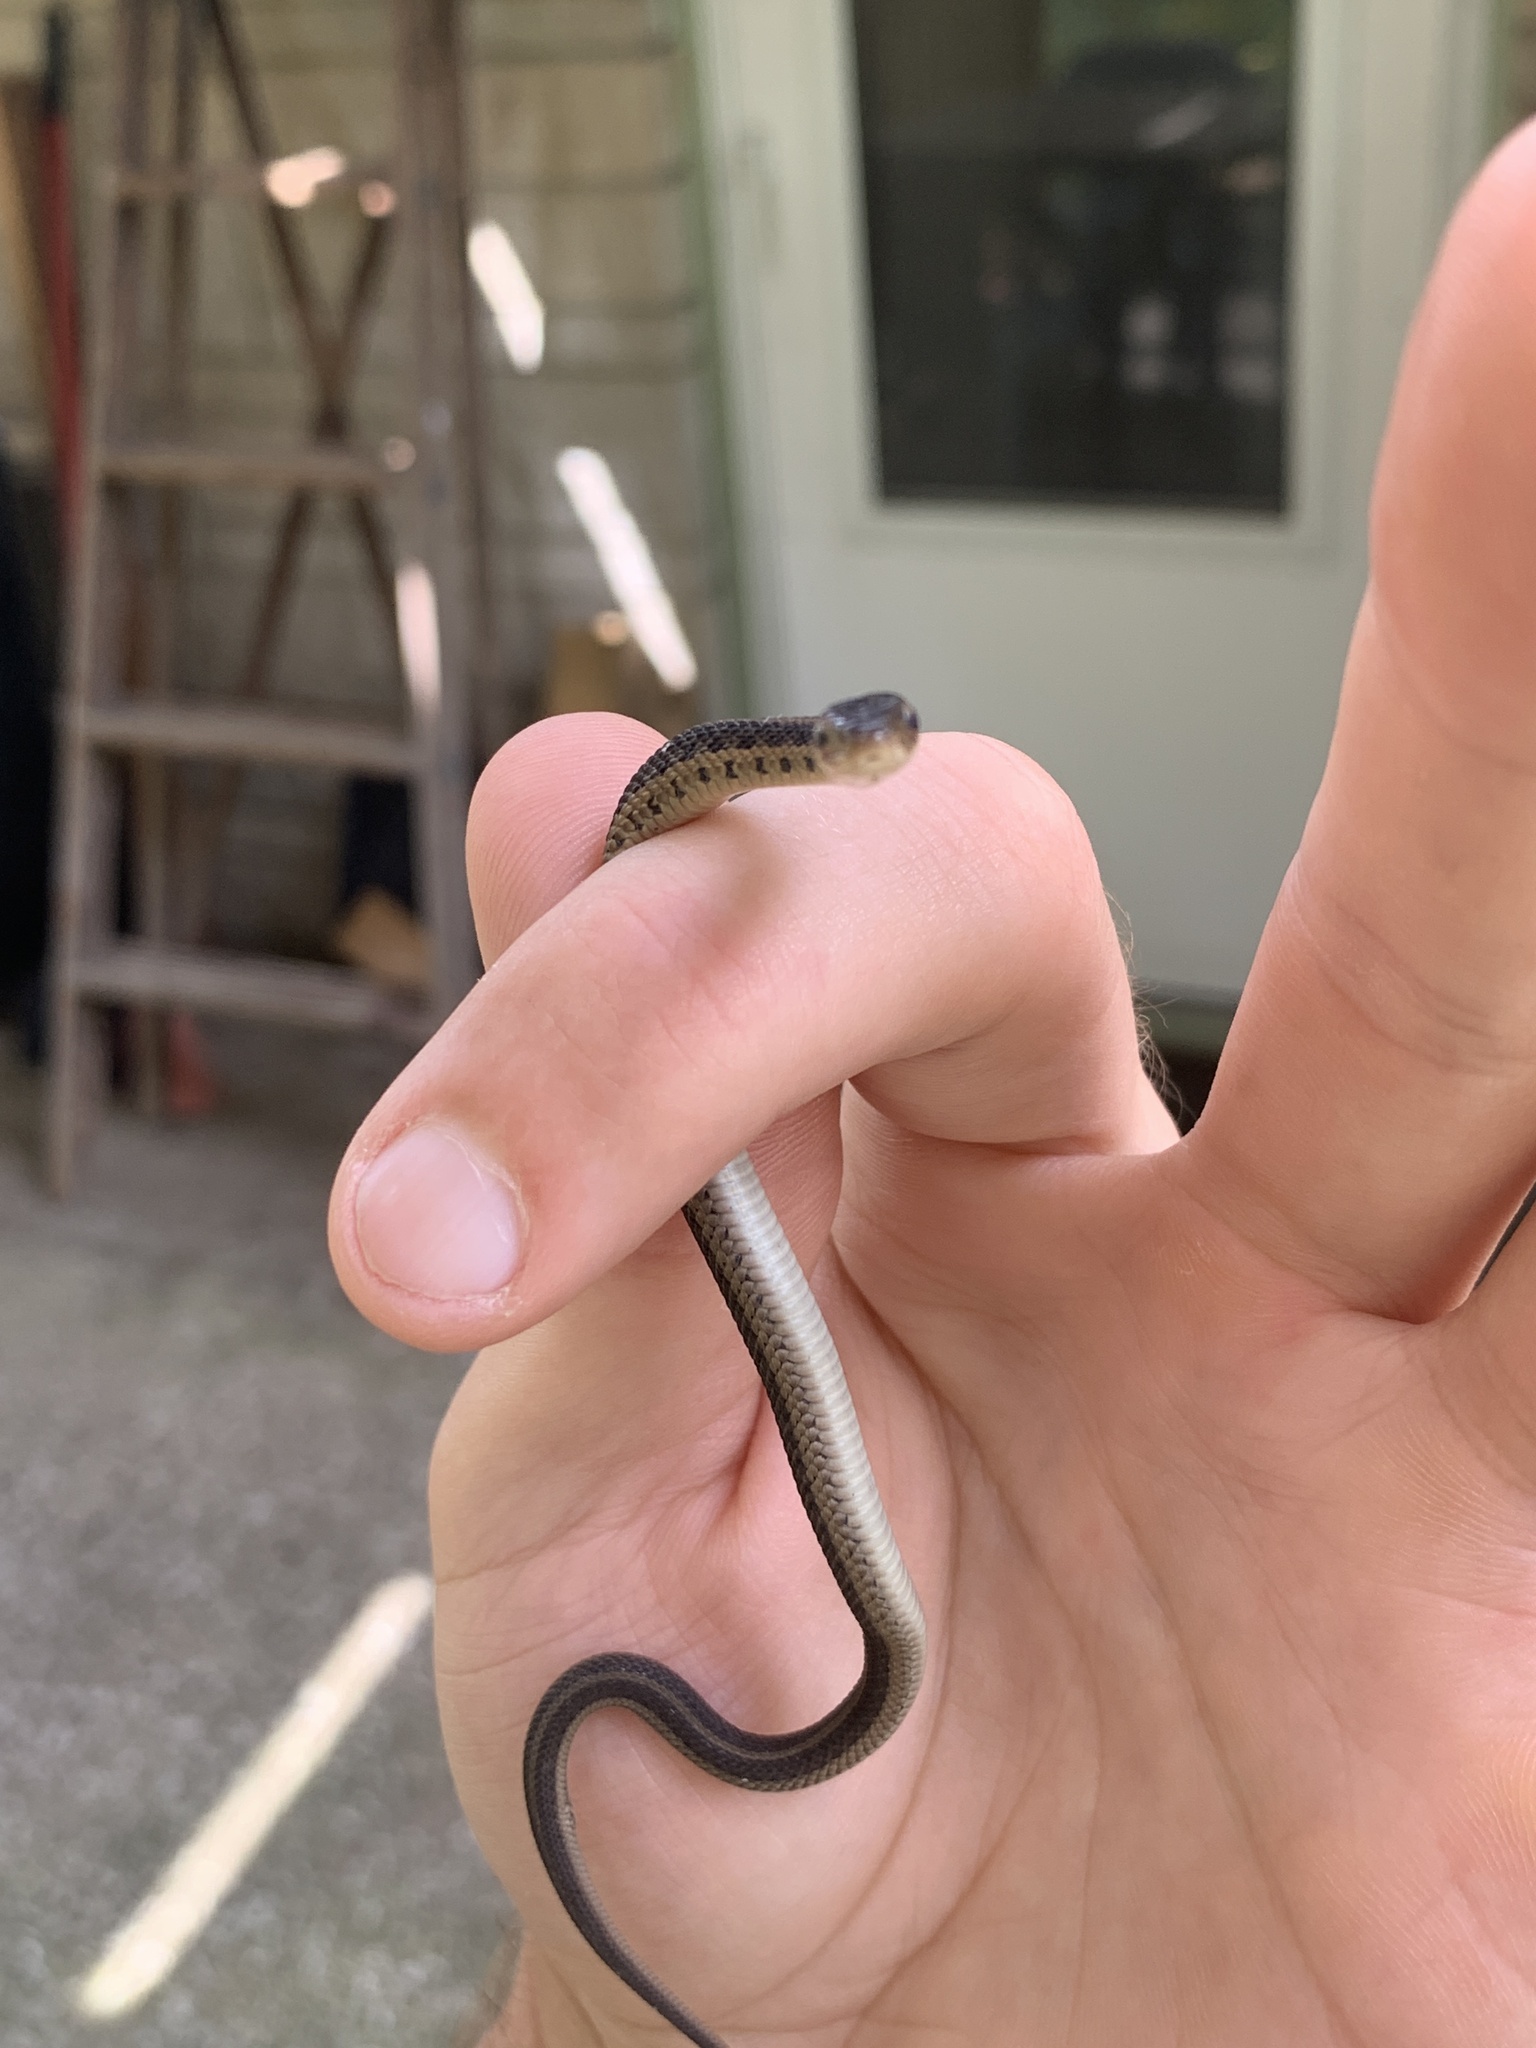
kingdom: Animalia
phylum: Chordata
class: Squamata
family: Colubridae
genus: Thamnophis
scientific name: Thamnophis sirtalis
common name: Common garter snake
